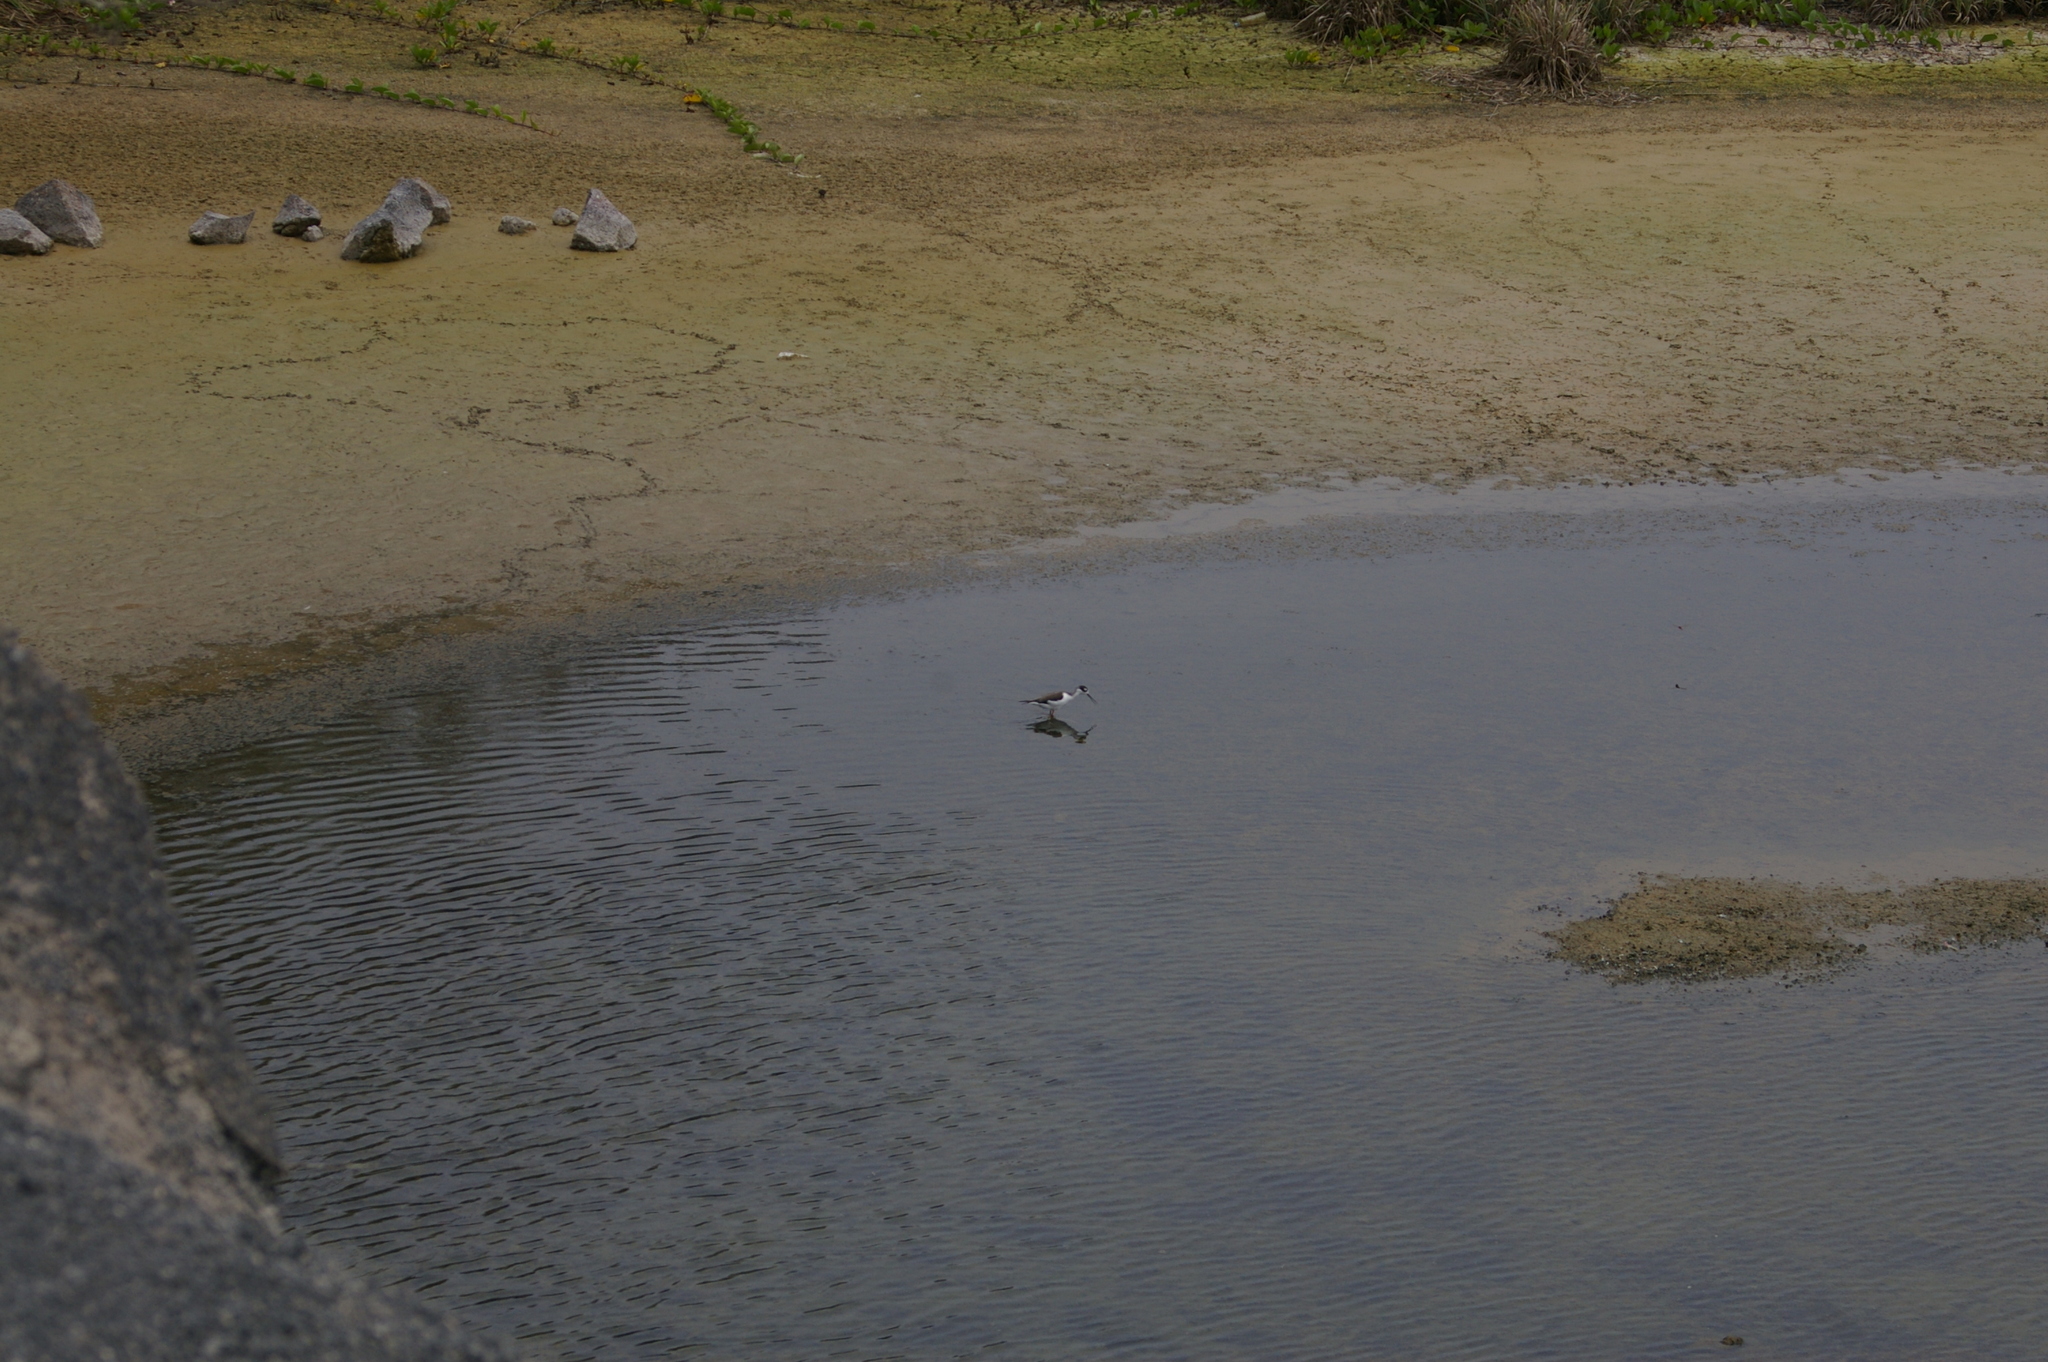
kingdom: Animalia
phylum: Chordata
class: Aves
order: Charadriiformes
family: Recurvirostridae
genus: Himantopus
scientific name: Himantopus mexicanus
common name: Black-necked stilt
